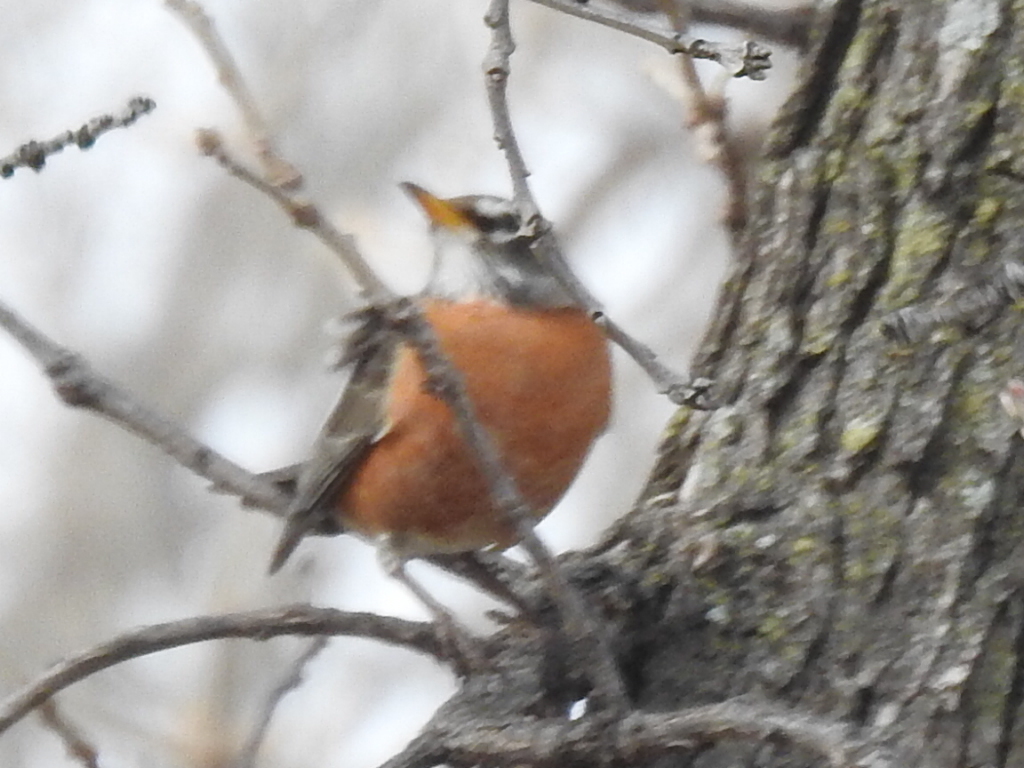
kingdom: Animalia
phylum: Chordata
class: Aves
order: Passeriformes
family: Turdidae
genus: Turdus
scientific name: Turdus migratorius
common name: American robin
